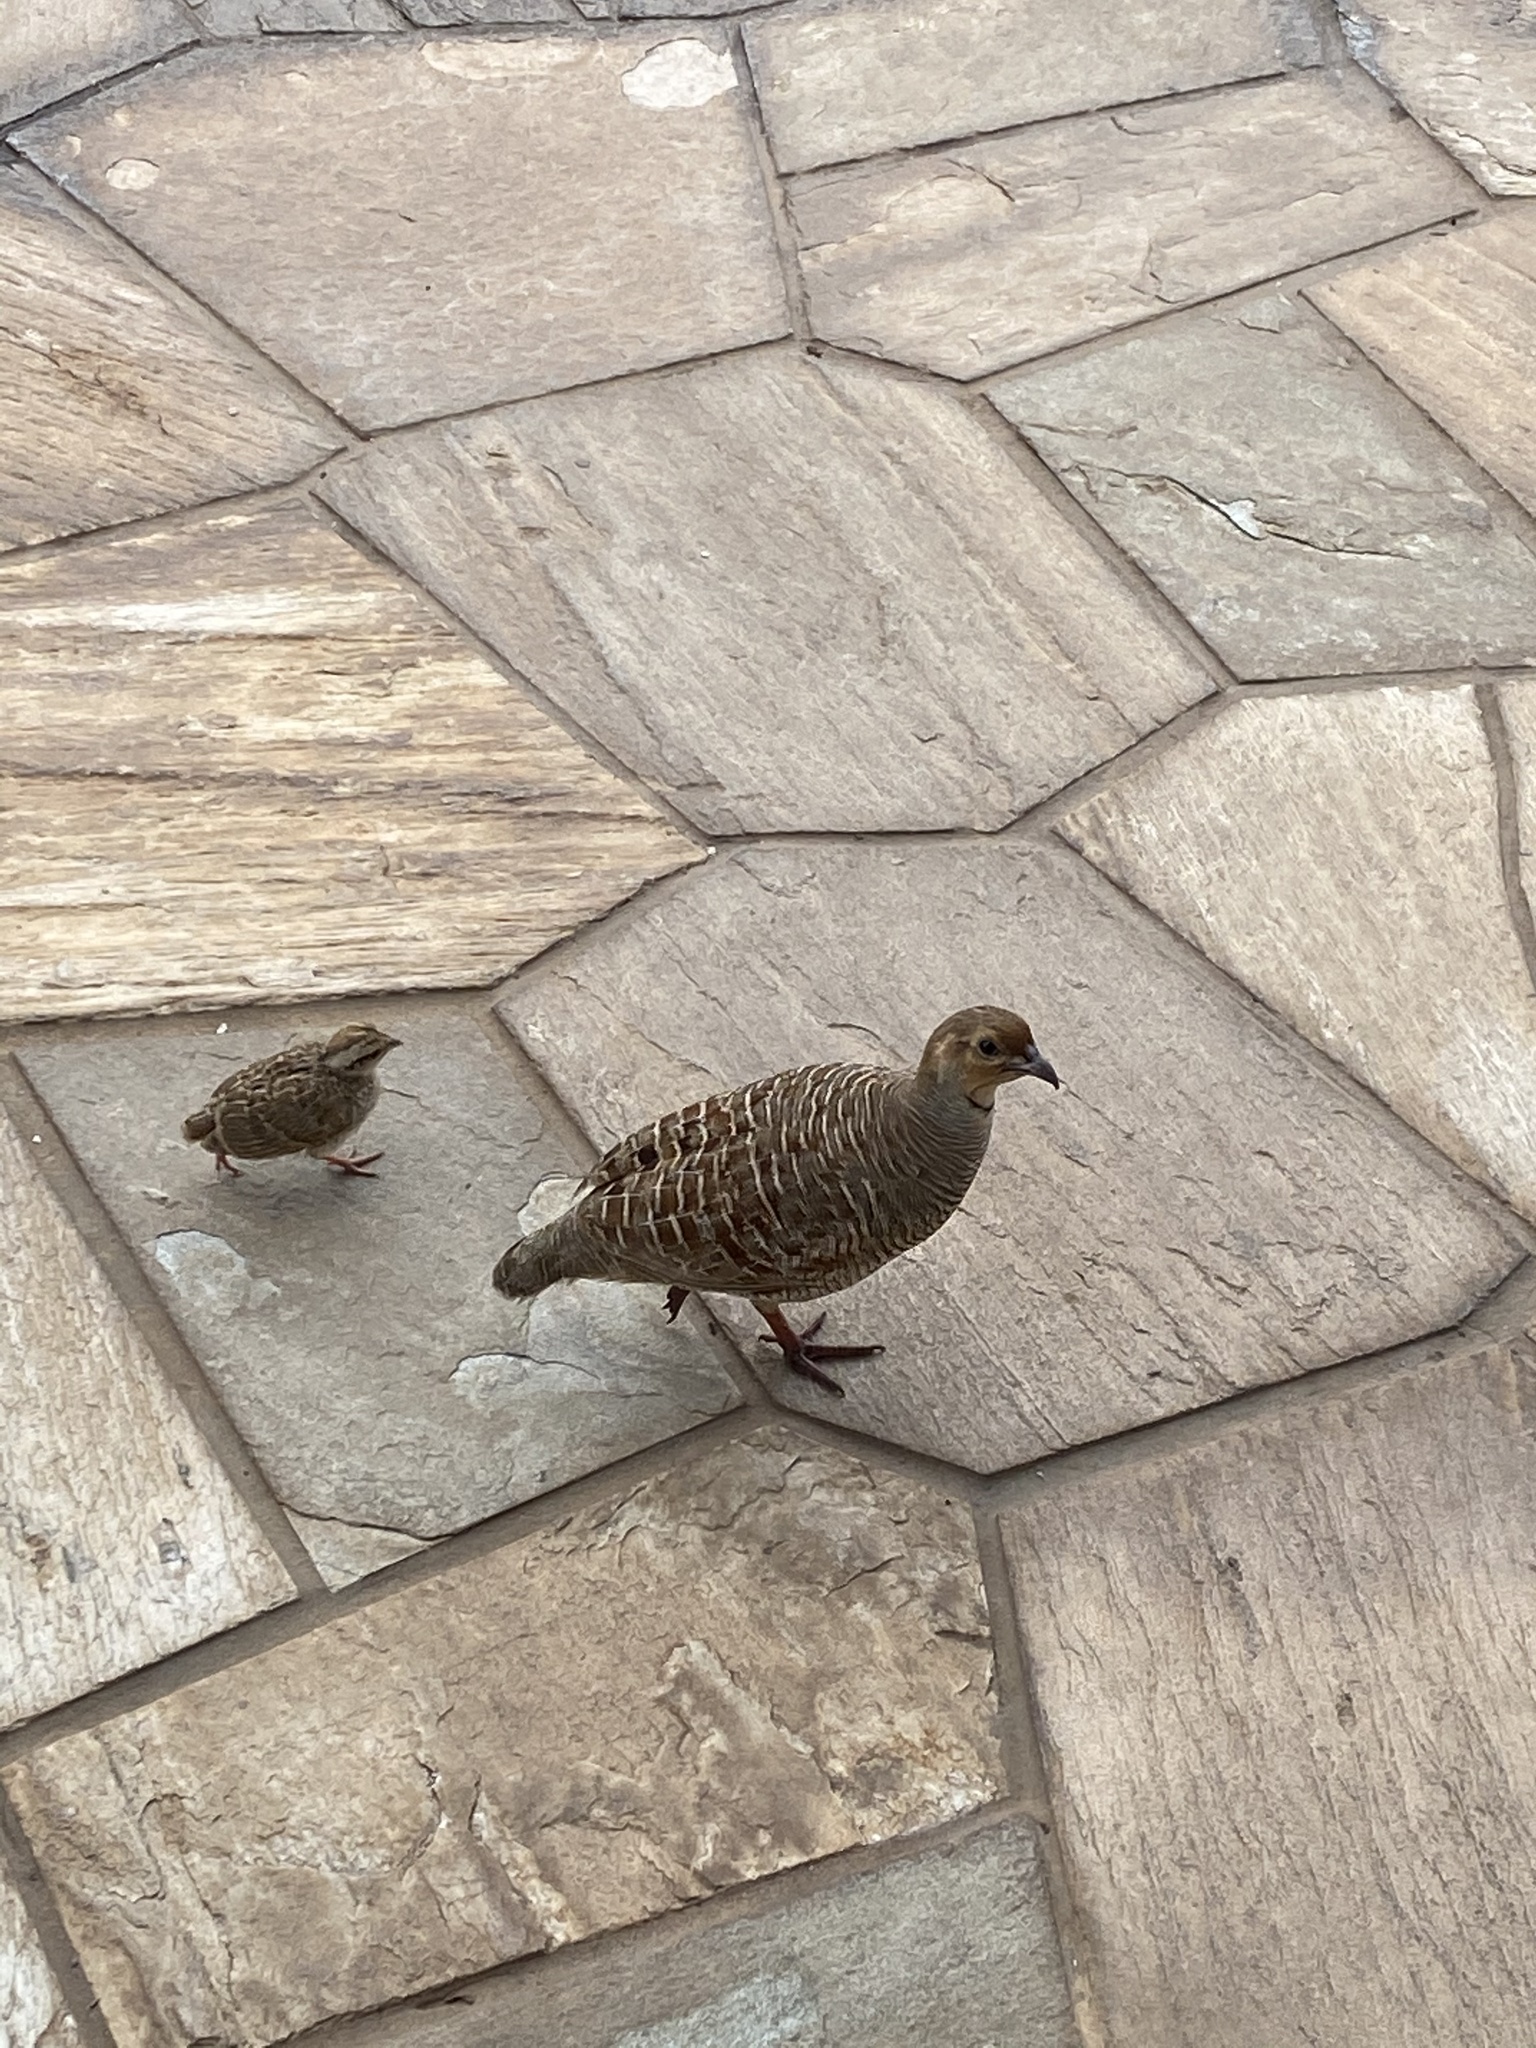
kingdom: Animalia
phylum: Chordata
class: Aves
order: Galliformes
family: Phasianidae
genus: Ortygornis
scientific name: Ortygornis pondicerianus
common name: Grey francolin
